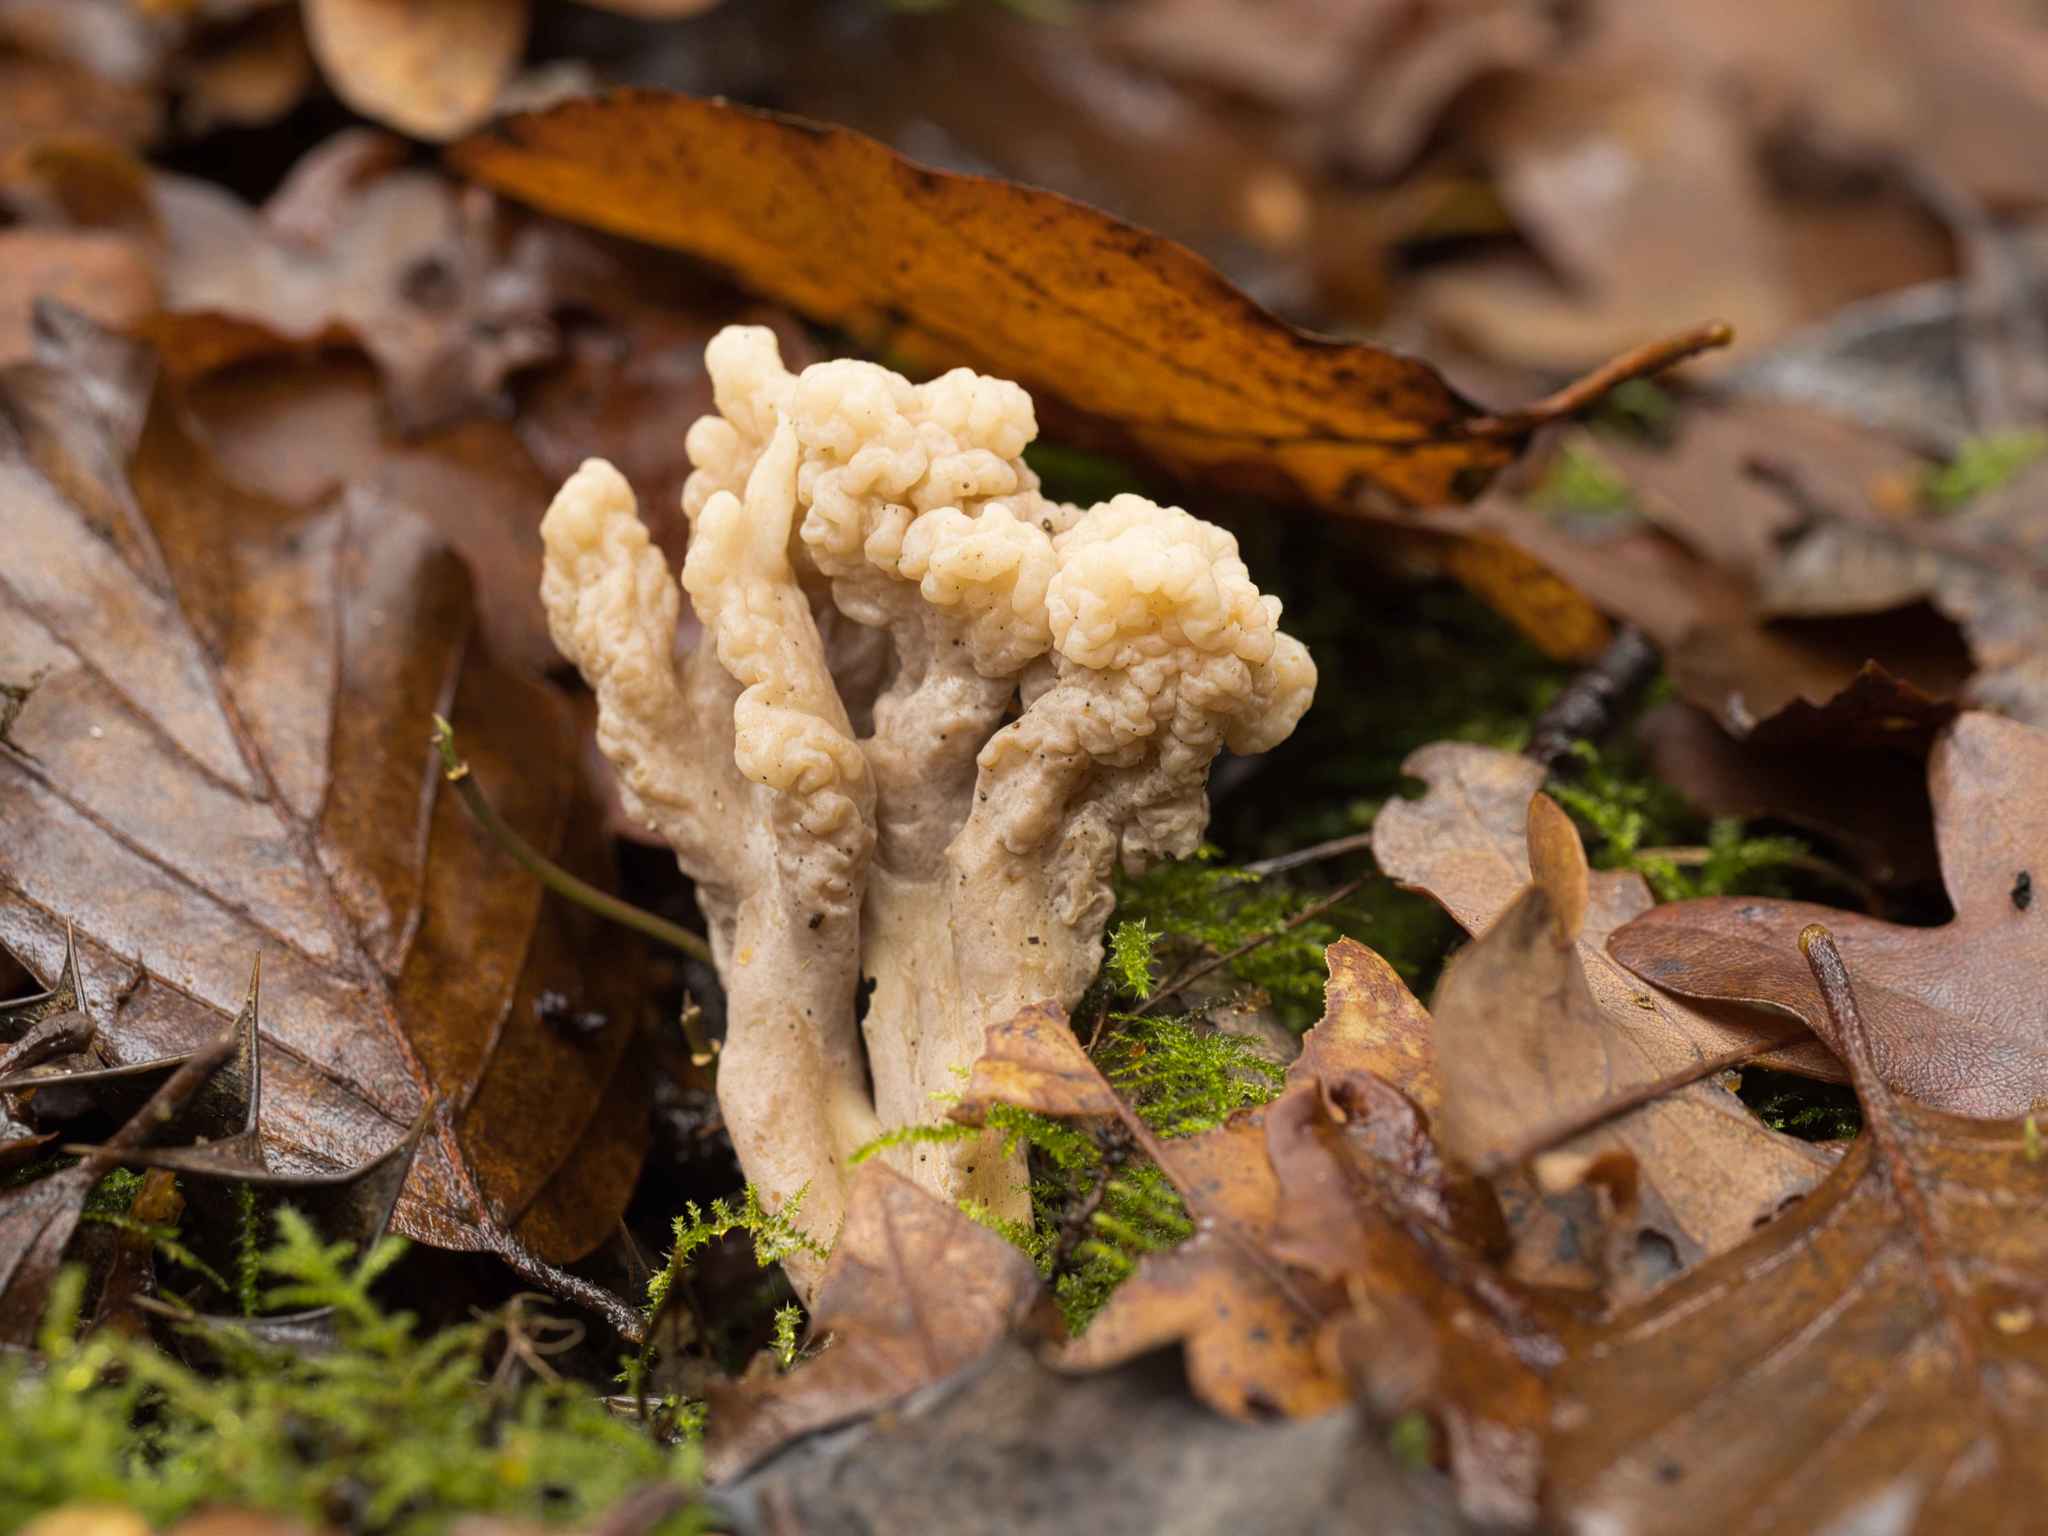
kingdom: Fungi
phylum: Basidiomycota
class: Agaricomycetes
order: Cantharellales
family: Hydnaceae
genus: Clavulina
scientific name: Clavulina rugosa
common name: Wrinkled club
